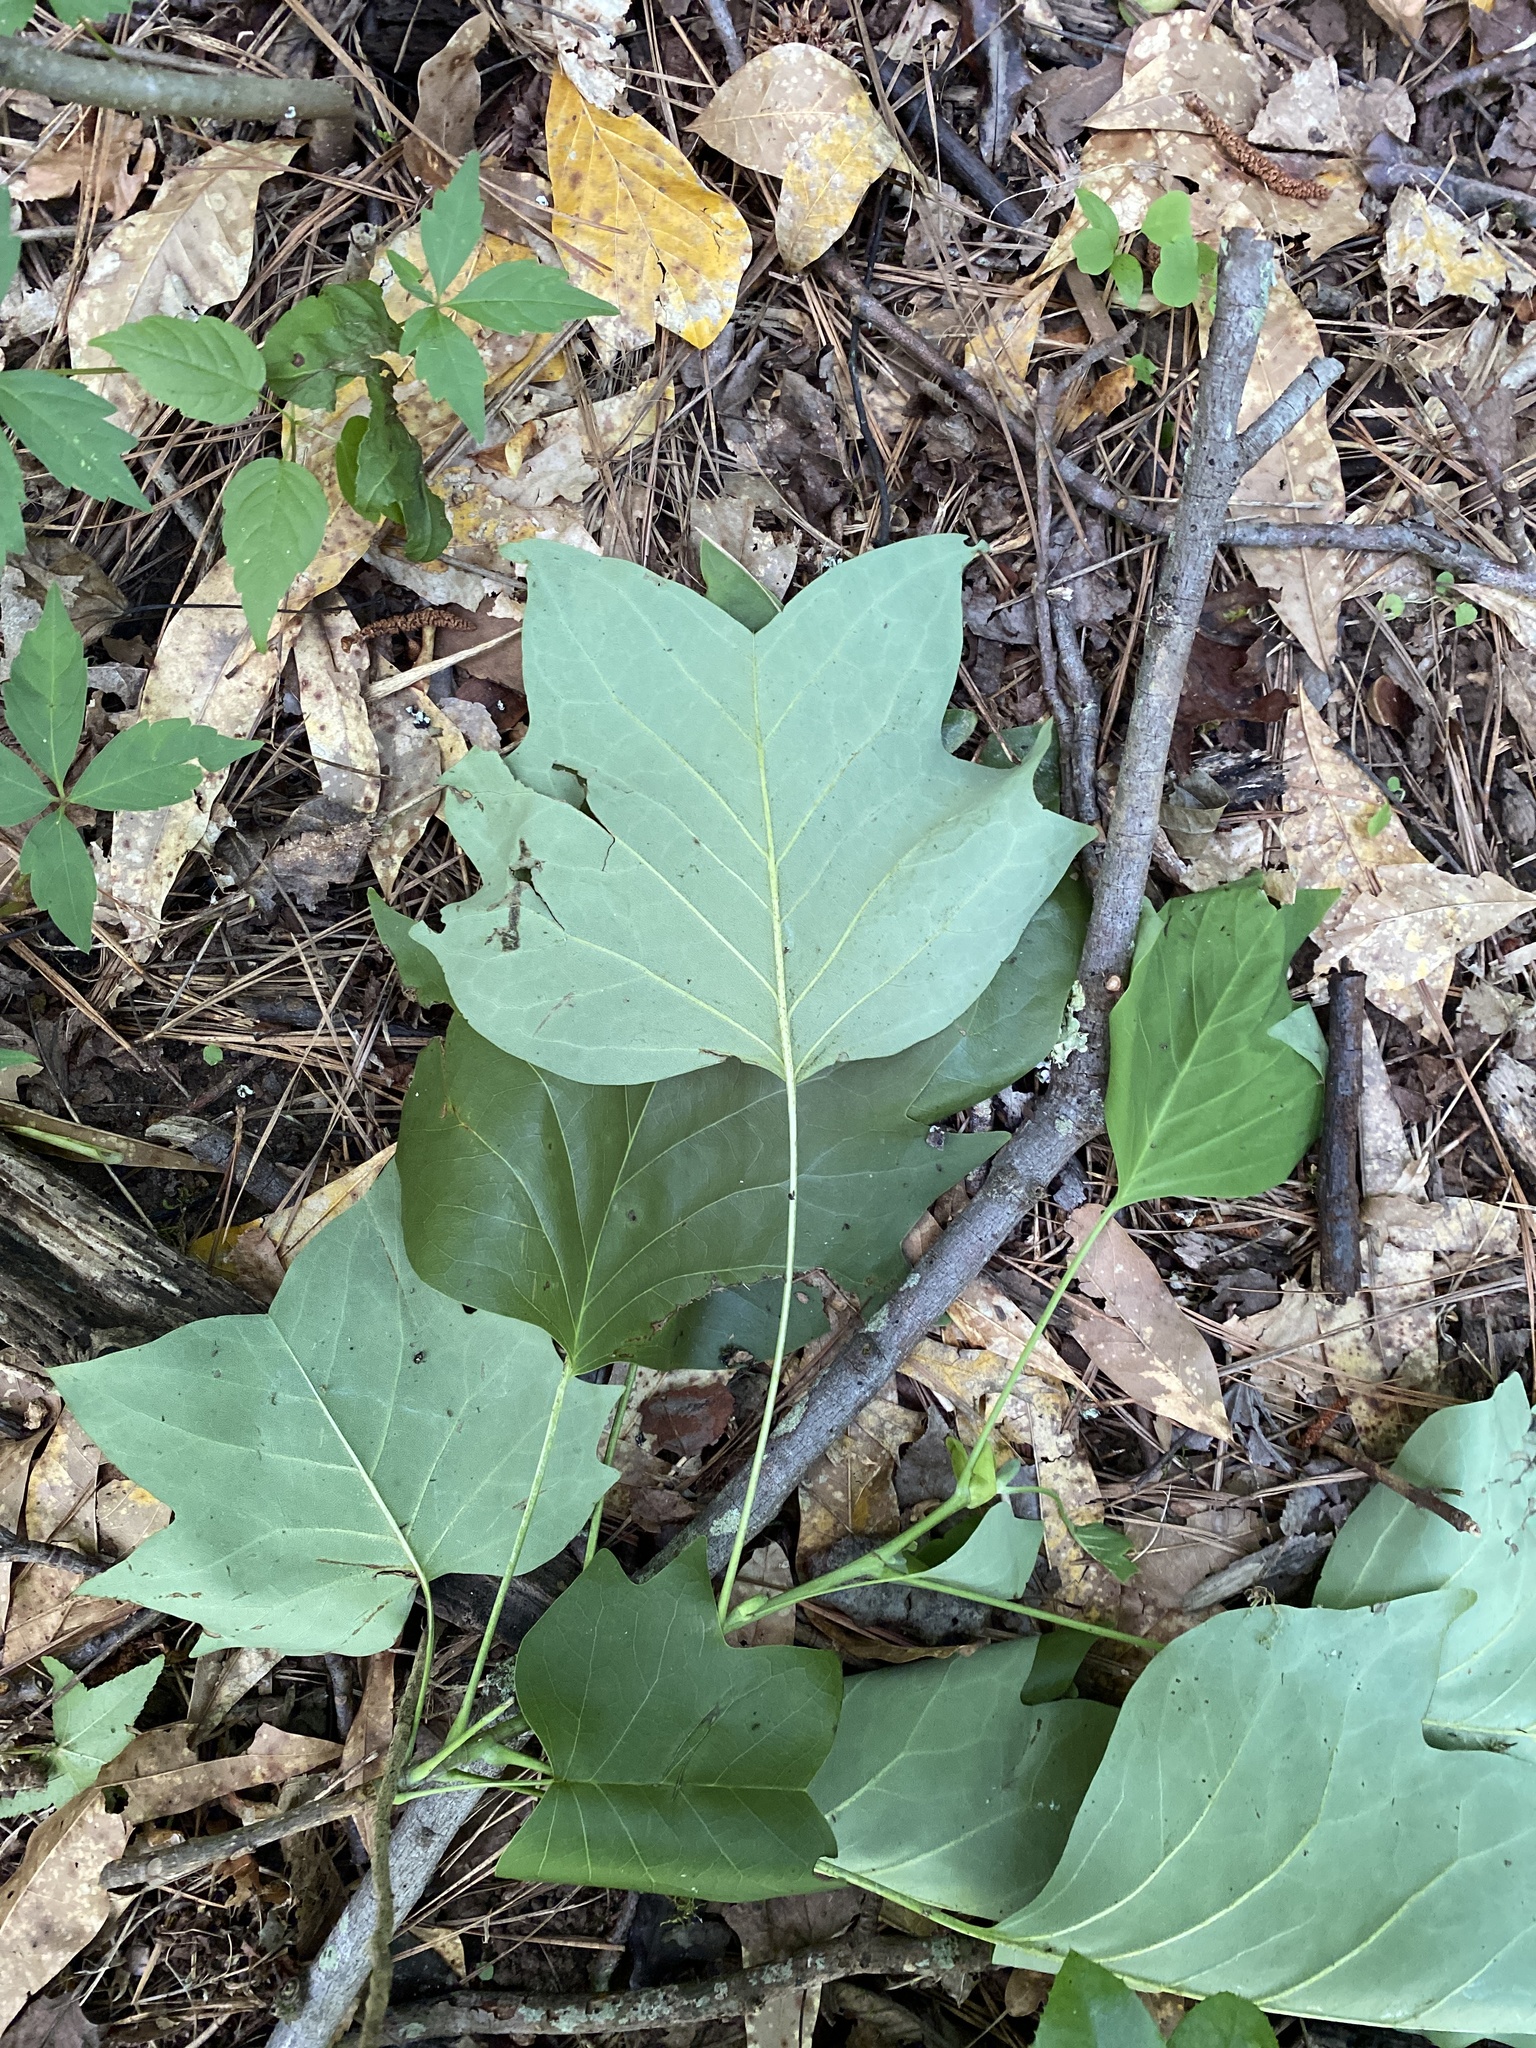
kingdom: Plantae
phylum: Tracheophyta
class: Magnoliopsida
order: Magnoliales
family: Magnoliaceae
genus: Liriodendron
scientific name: Liriodendron tulipifera
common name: Tulip tree
